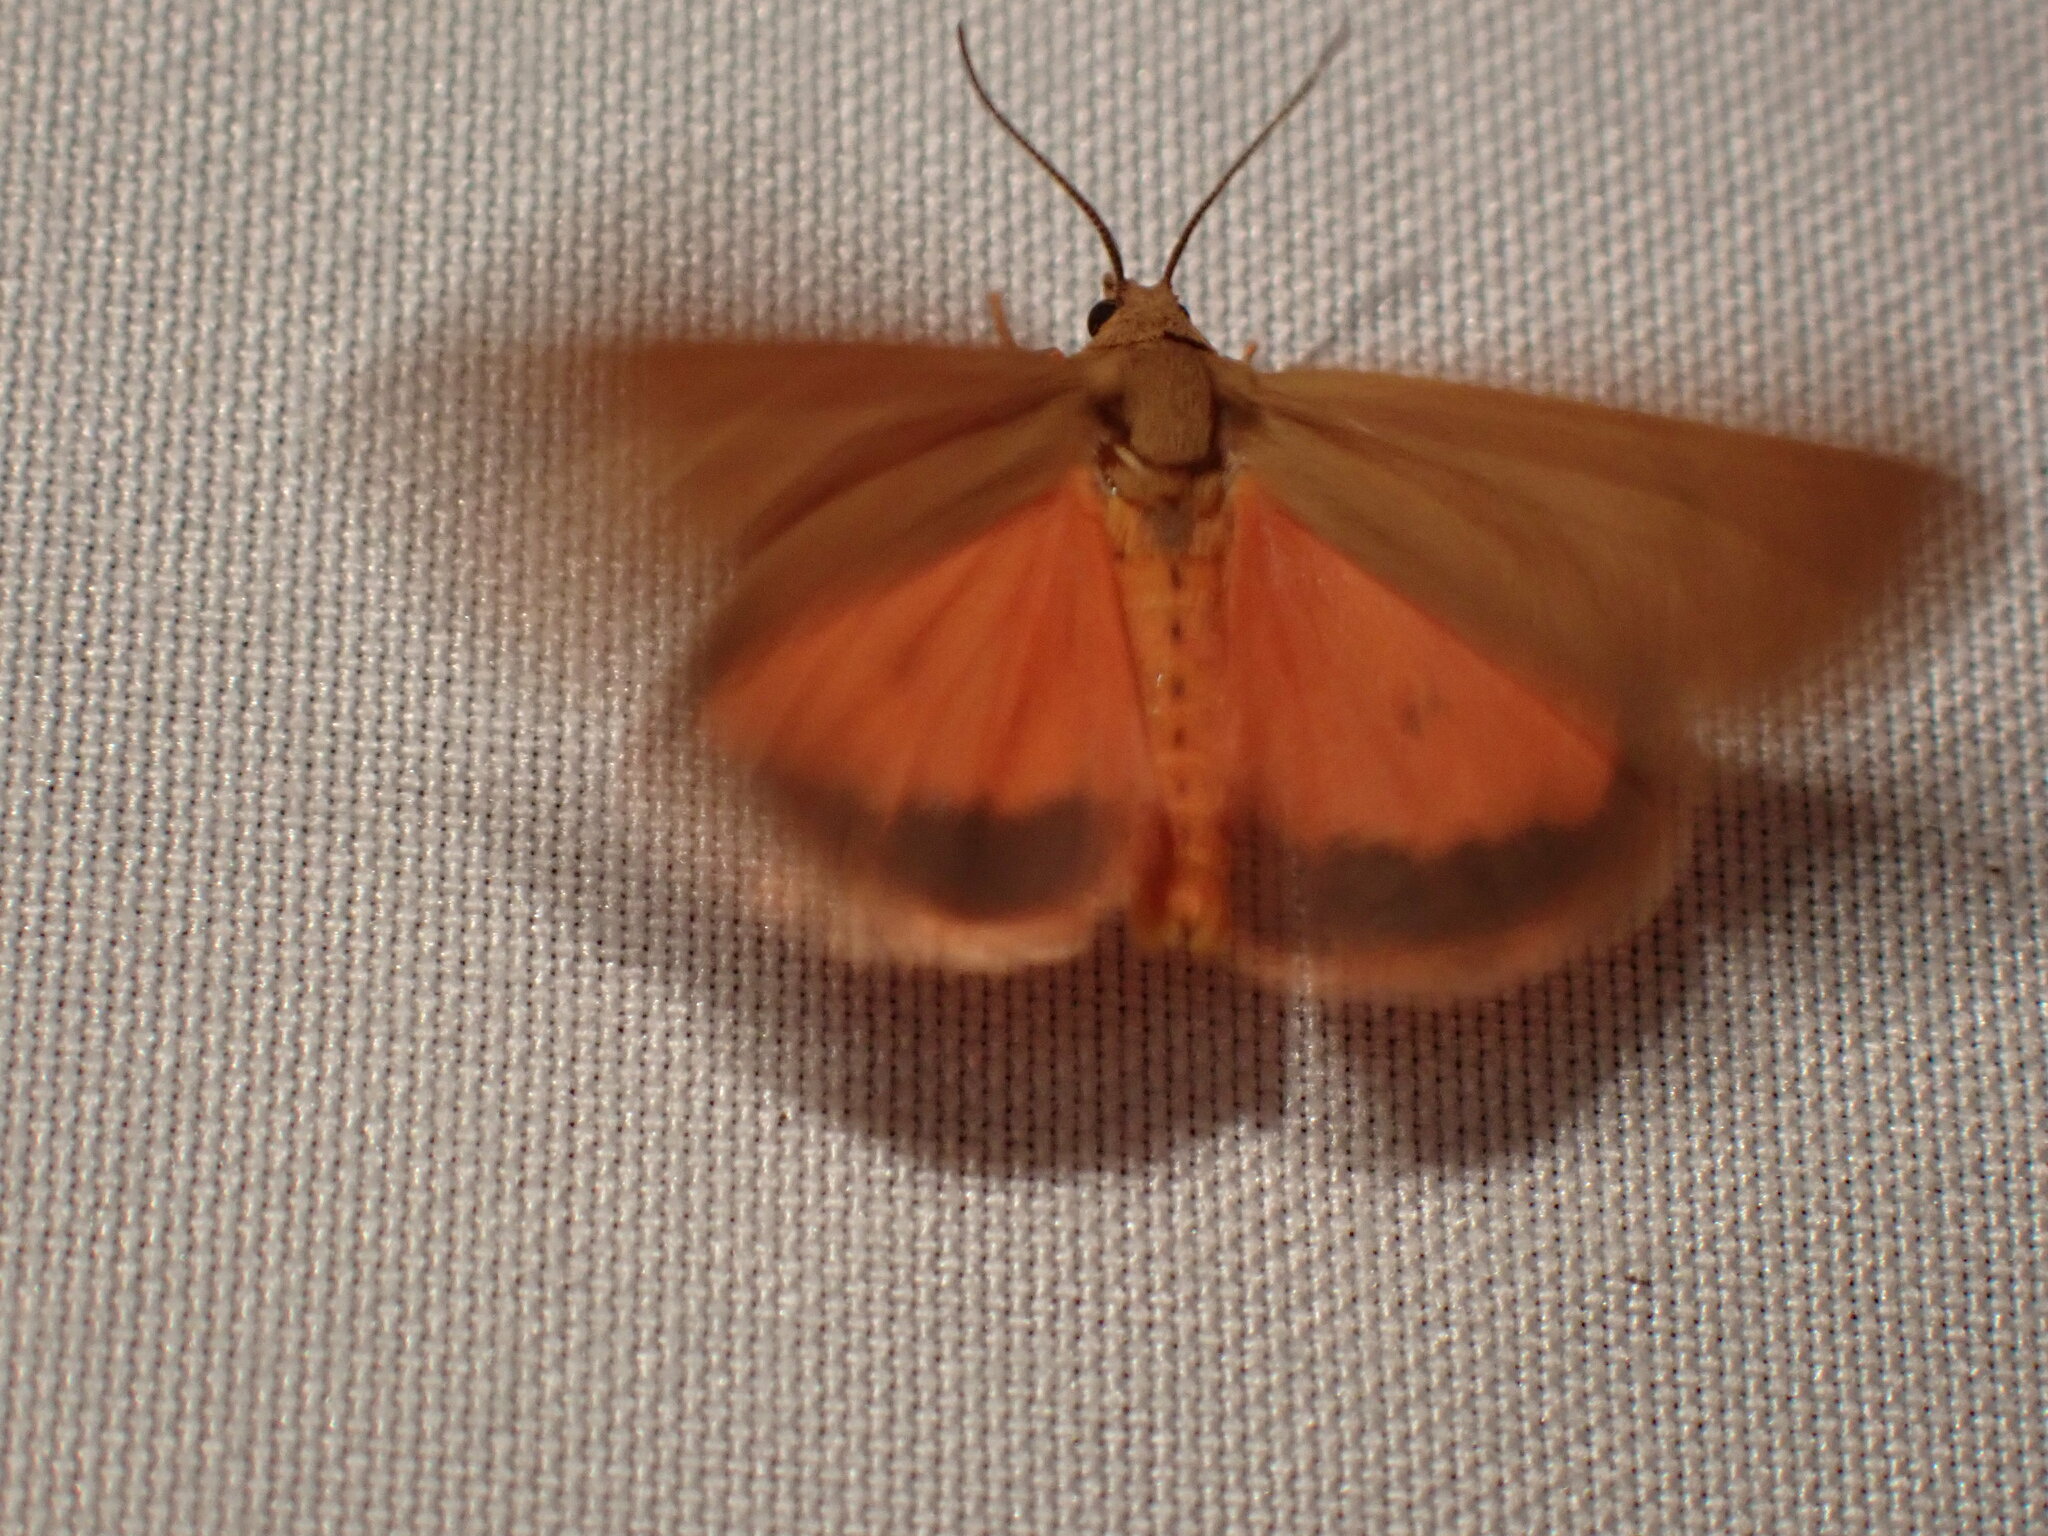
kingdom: Animalia
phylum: Arthropoda
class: Insecta
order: Lepidoptera
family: Erebidae
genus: Virbia
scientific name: Virbia aurantiaca
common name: Orange virbia moth
